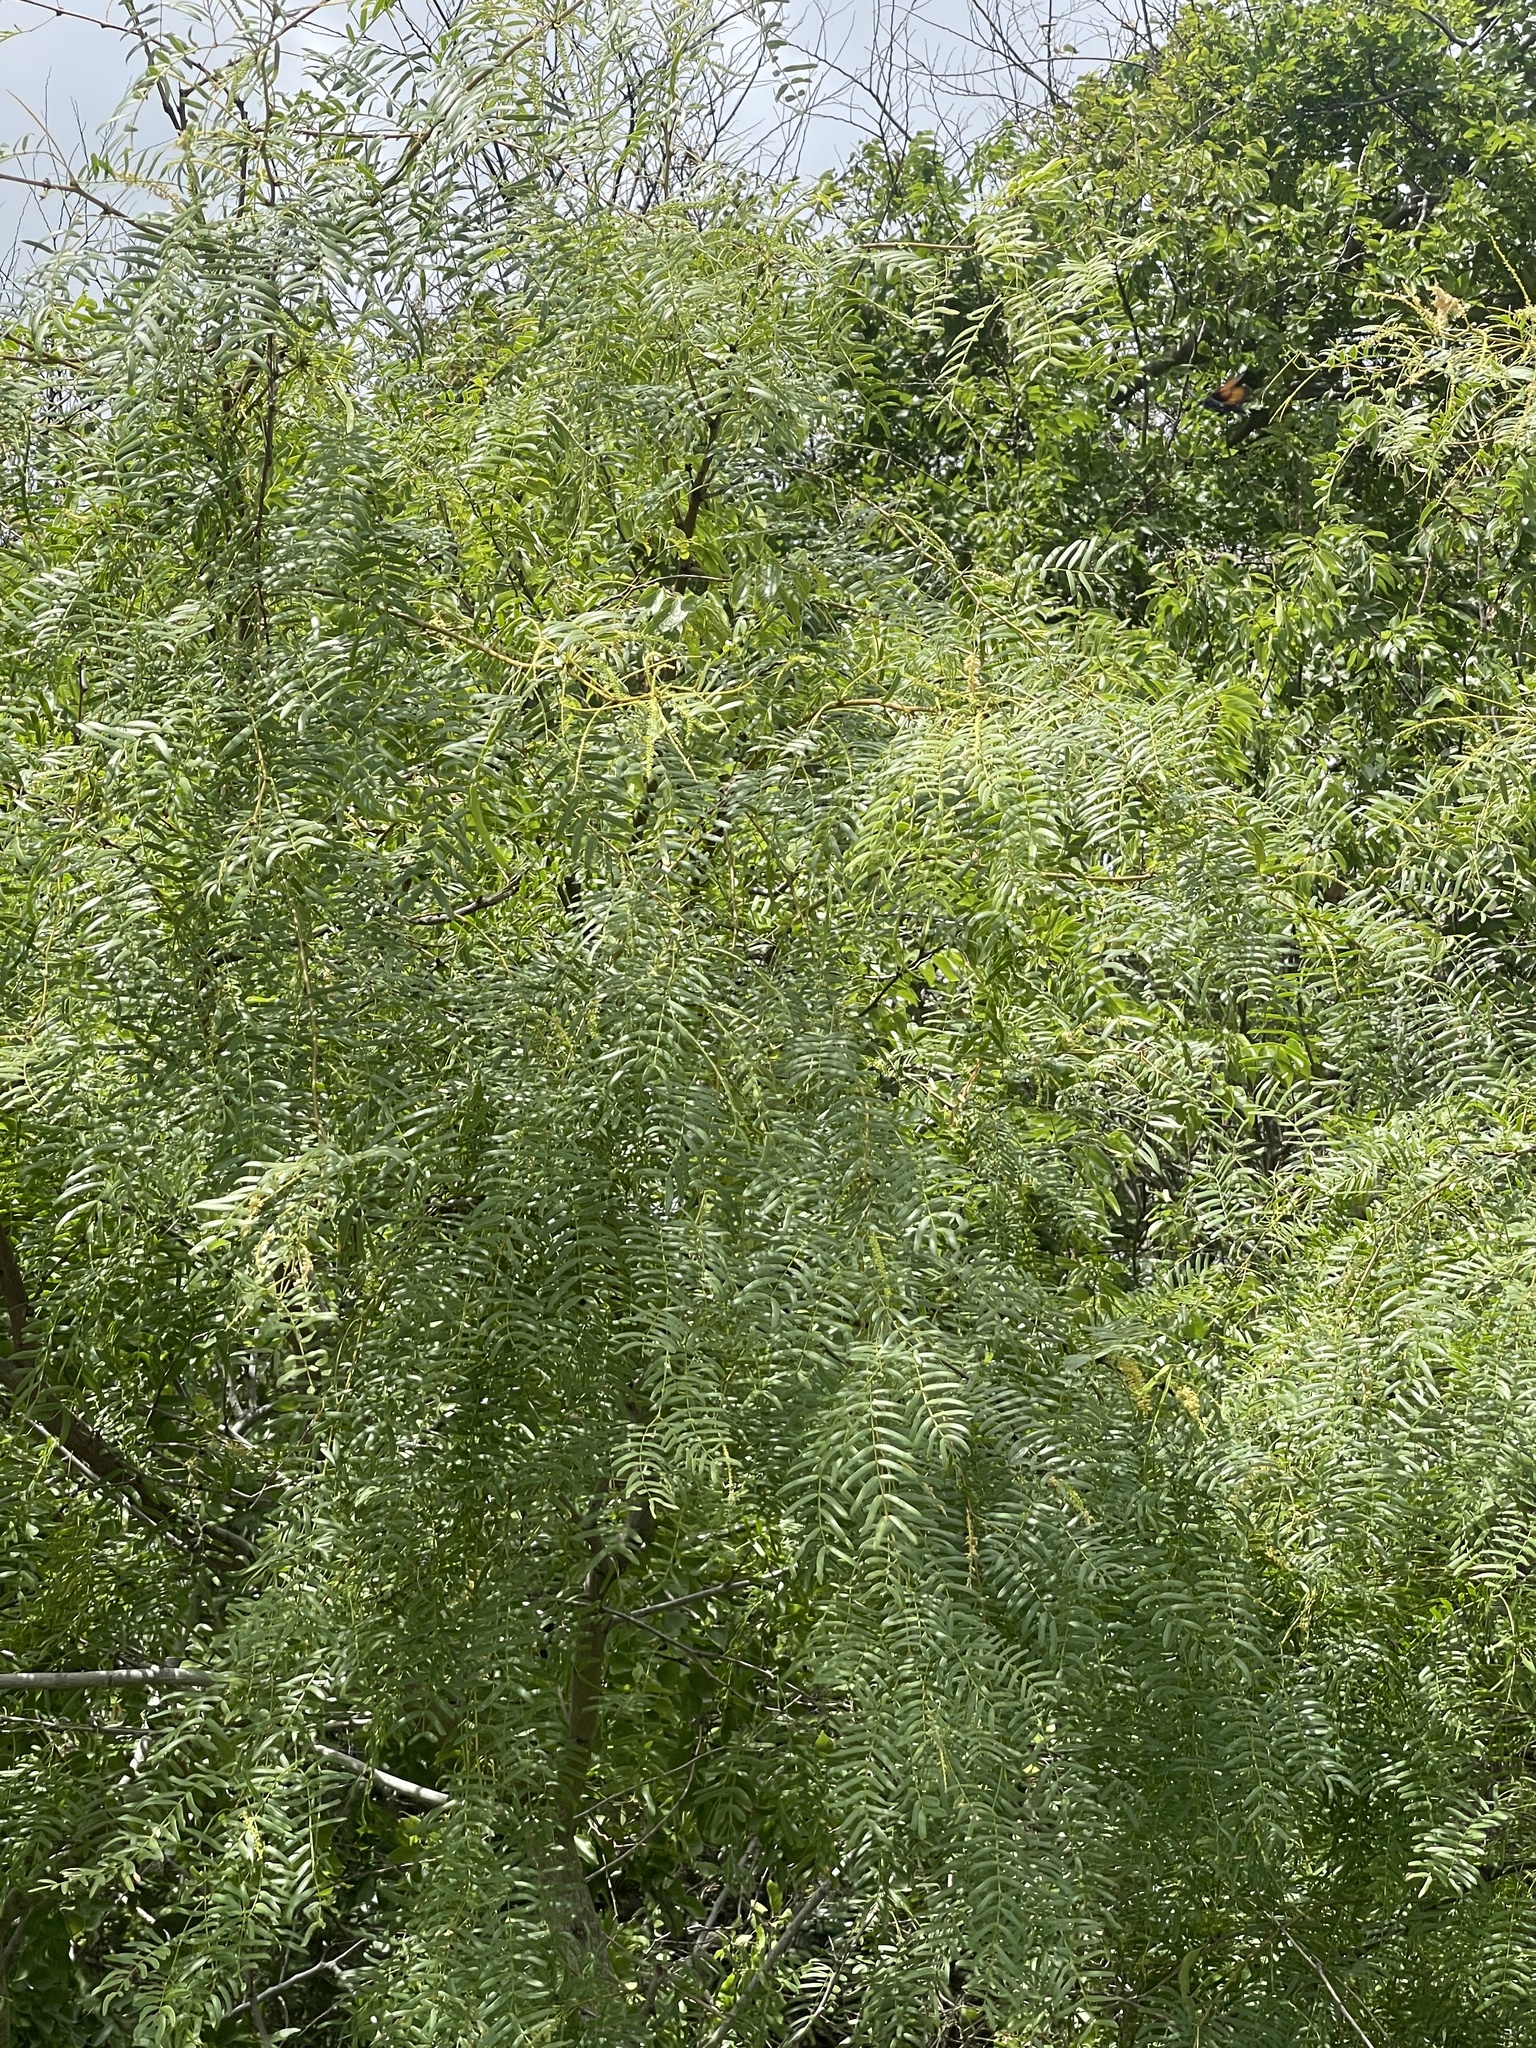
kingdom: Plantae
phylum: Tracheophyta
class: Magnoliopsida
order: Fabales
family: Fabaceae
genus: Prosopis
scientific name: Prosopis glandulosa
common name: Honey mesquite
